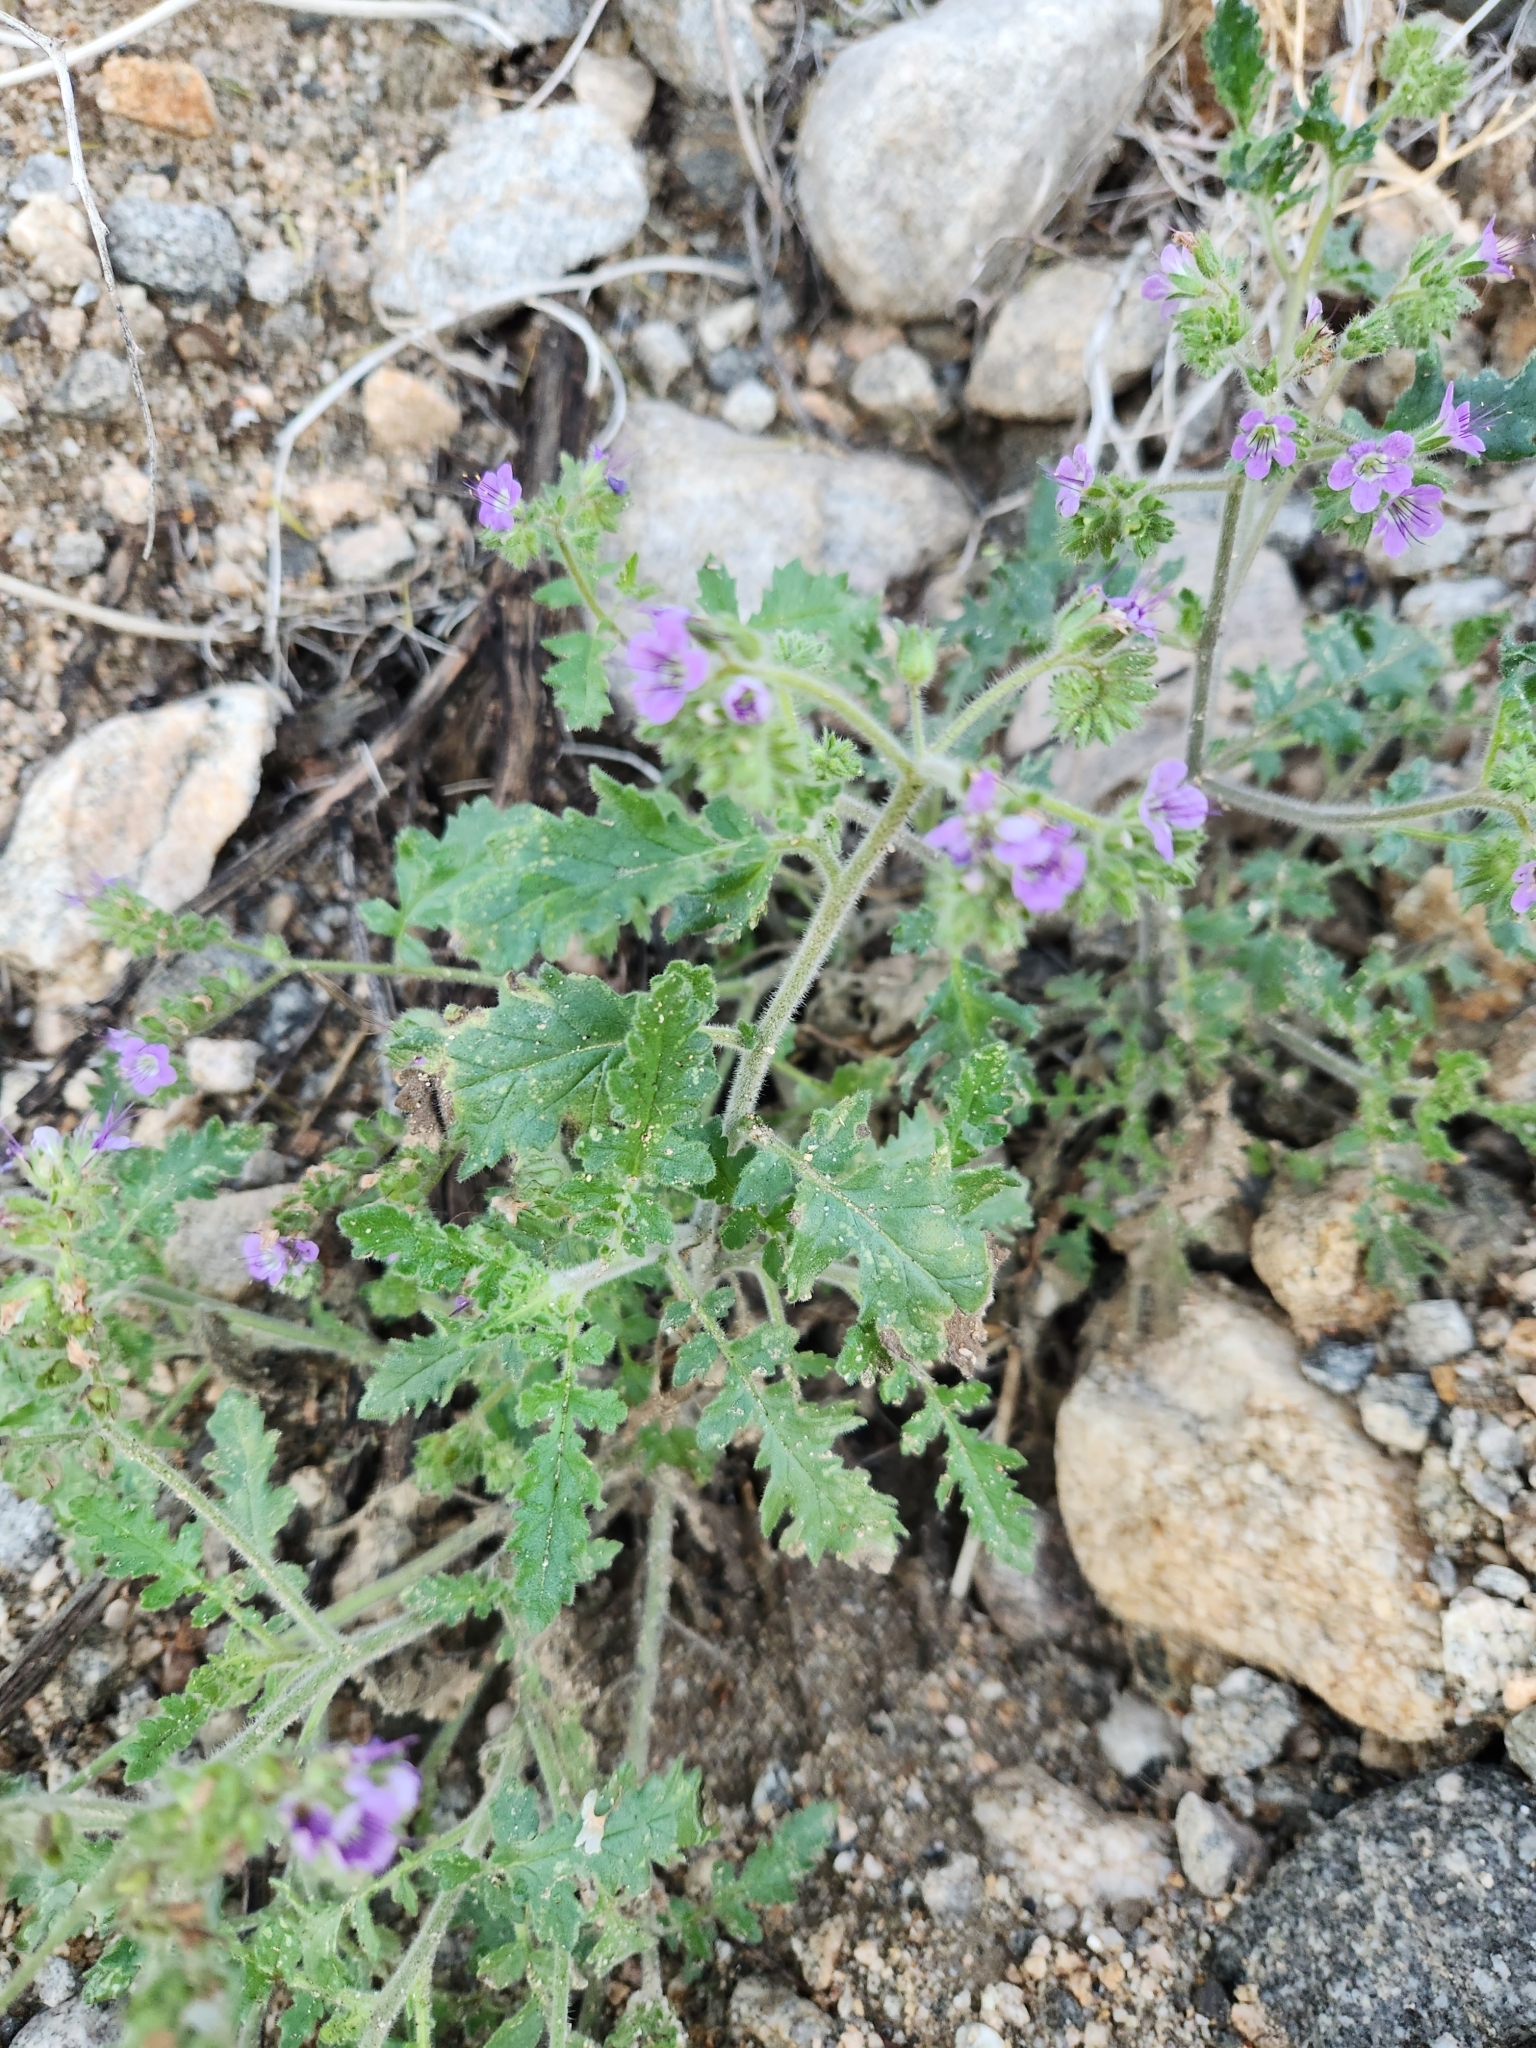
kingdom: Plantae
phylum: Tracheophyta
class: Magnoliopsida
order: Boraginales
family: Hydrophyllaceae
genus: Phacelia
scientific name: Phacelia crenulata
